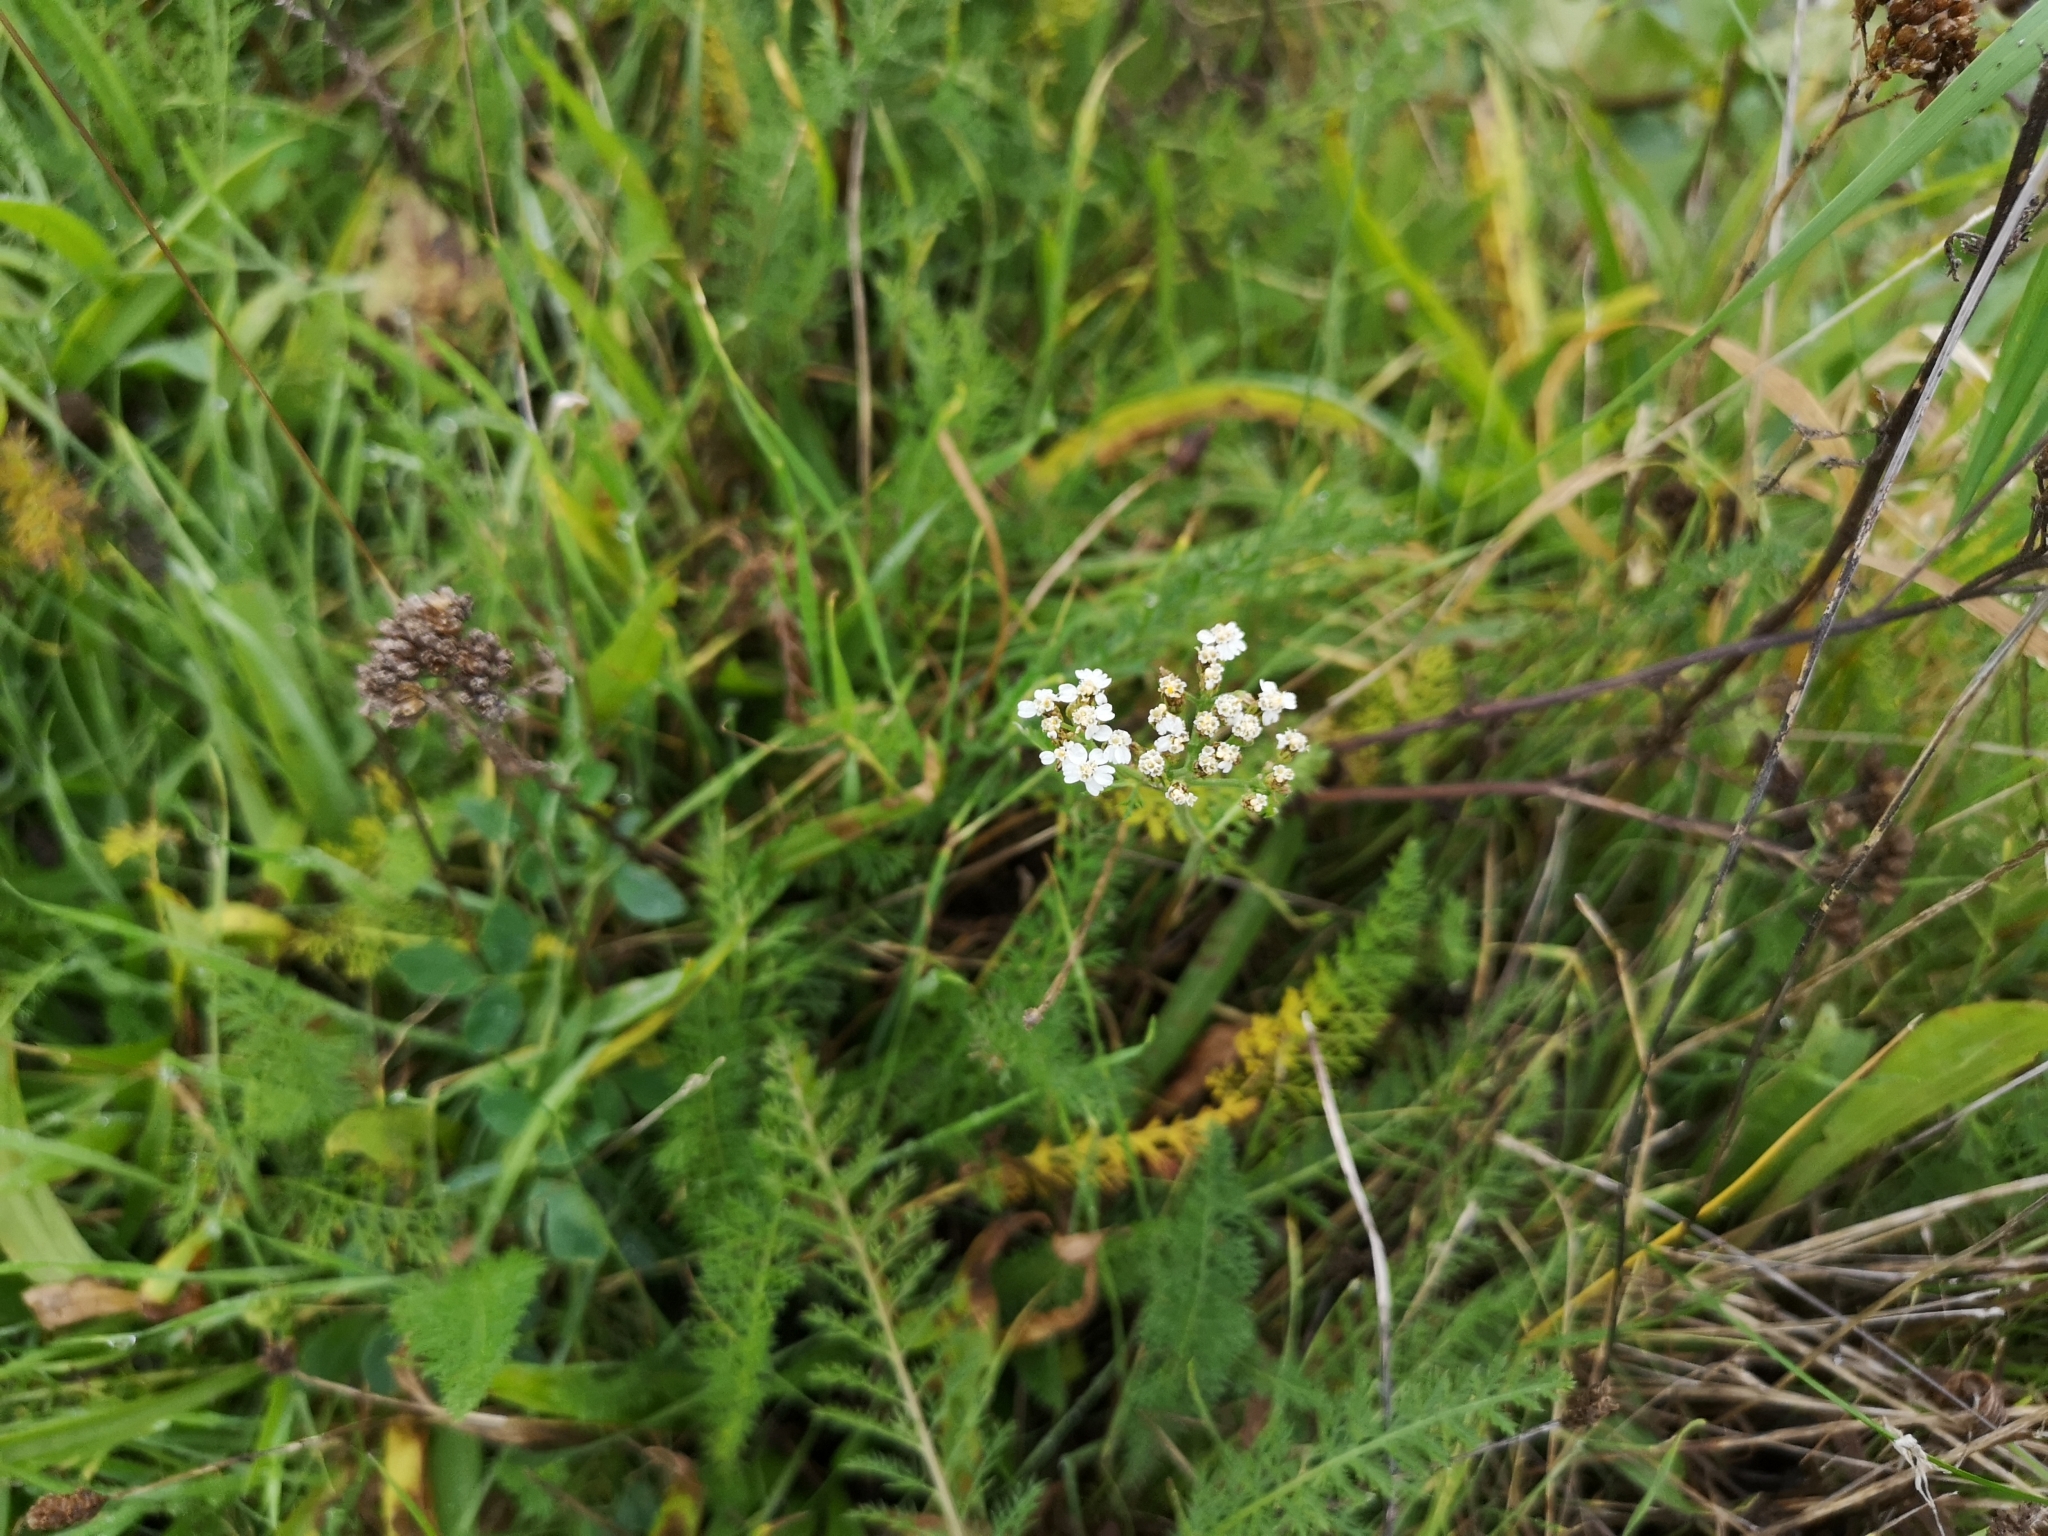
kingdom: Plantae
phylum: Tracheophyta
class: Magnoliopsida
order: Asterales
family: Asteraceae
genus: Achillea
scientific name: Achillea millefolium
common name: Yarrow
